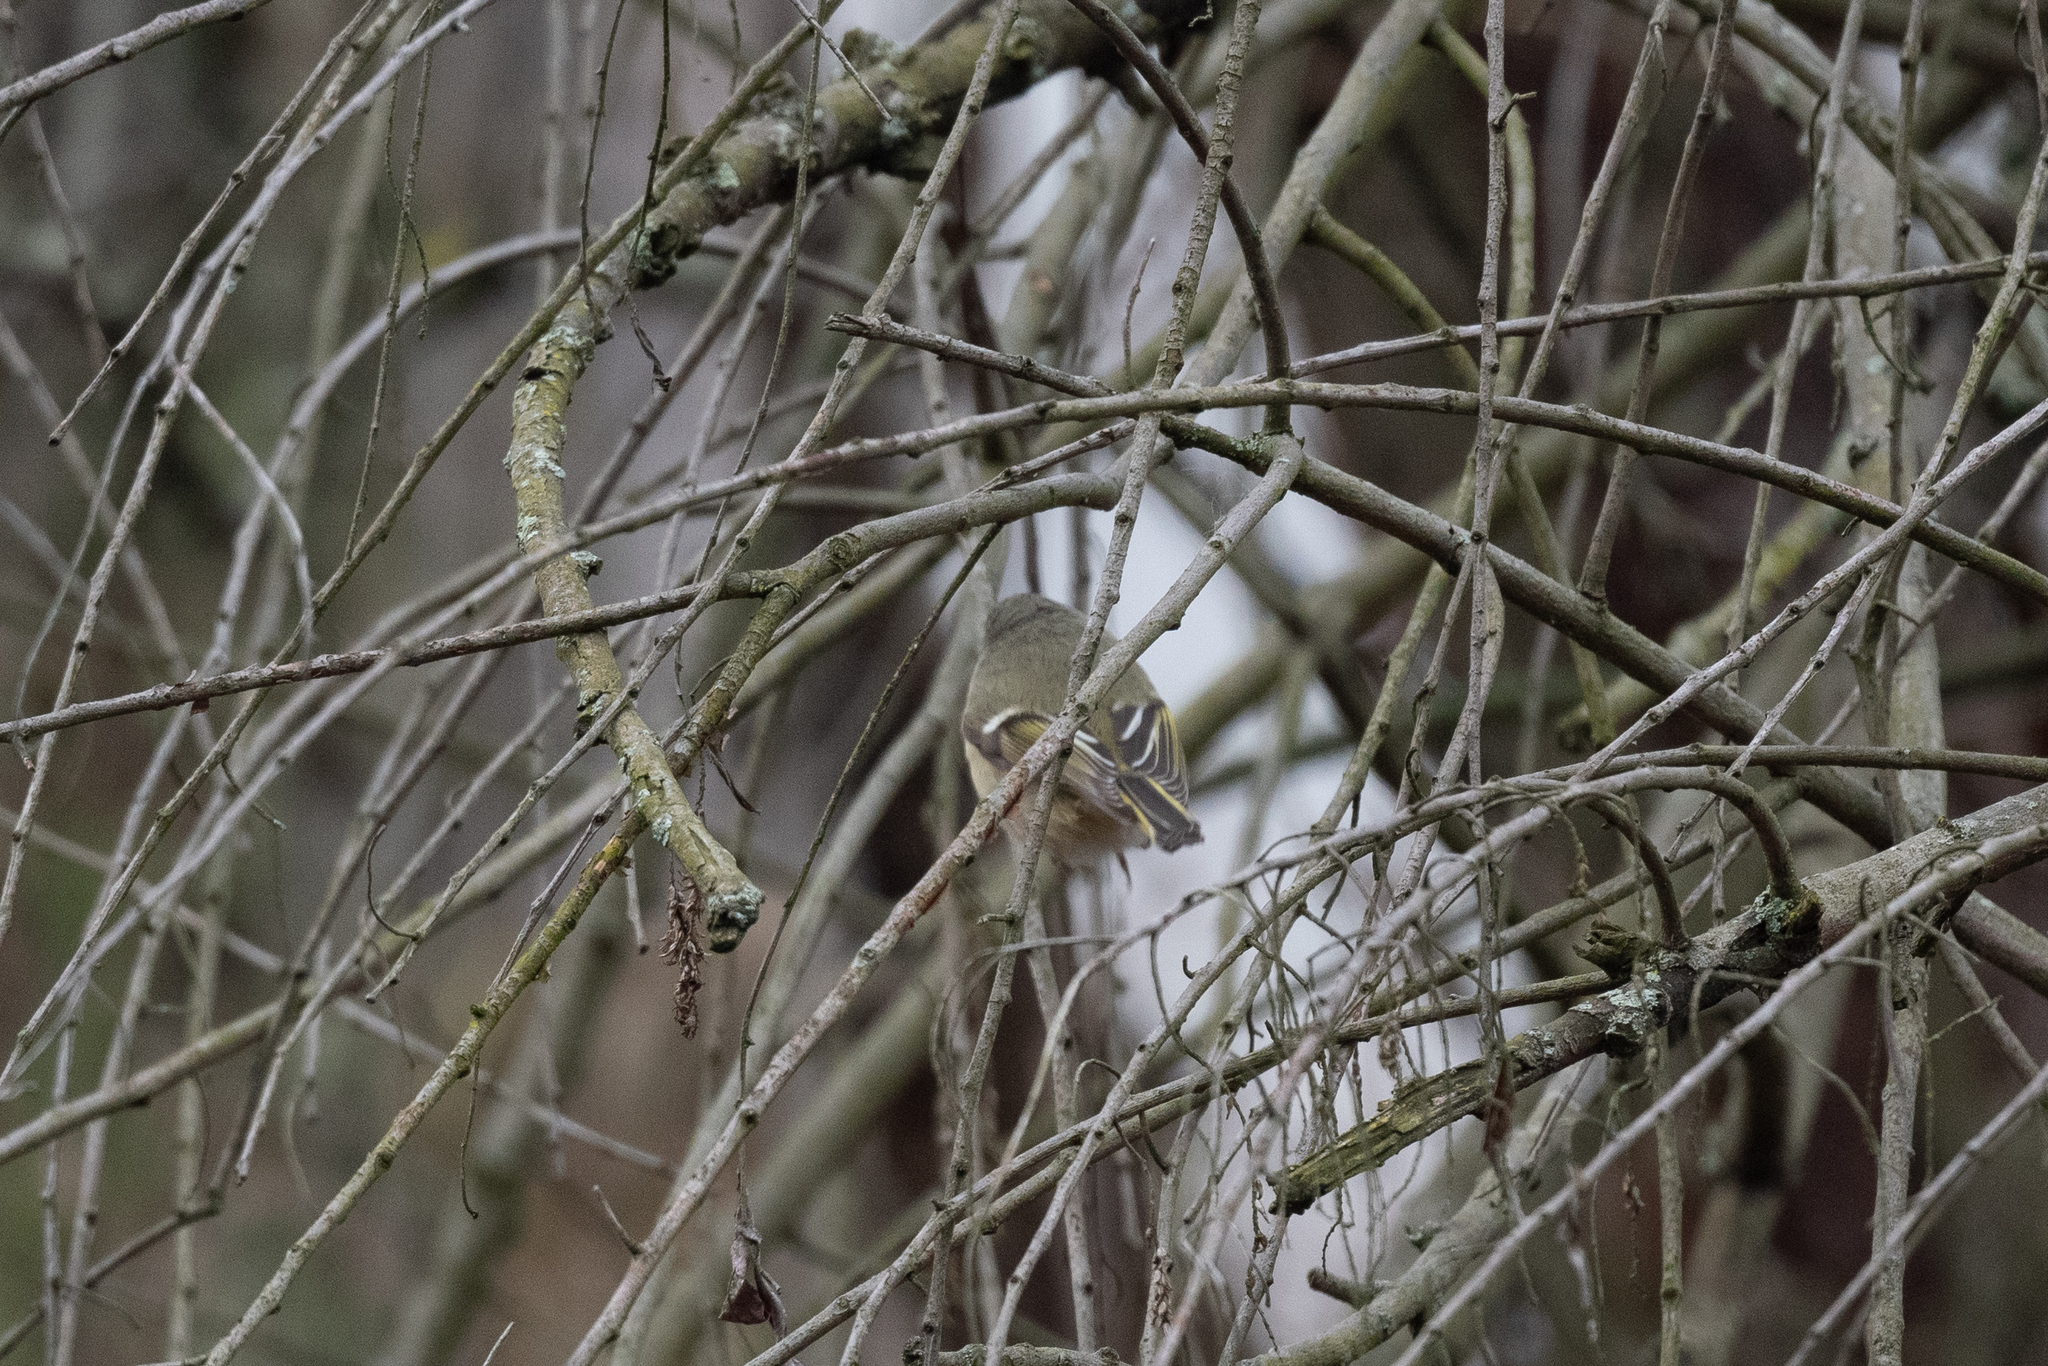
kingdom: Animalia
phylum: Chordata
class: Aves
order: Passeriformes
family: Regulidae
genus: Regulus
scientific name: Regulus calendula
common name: Ruby-crowned kinglet
